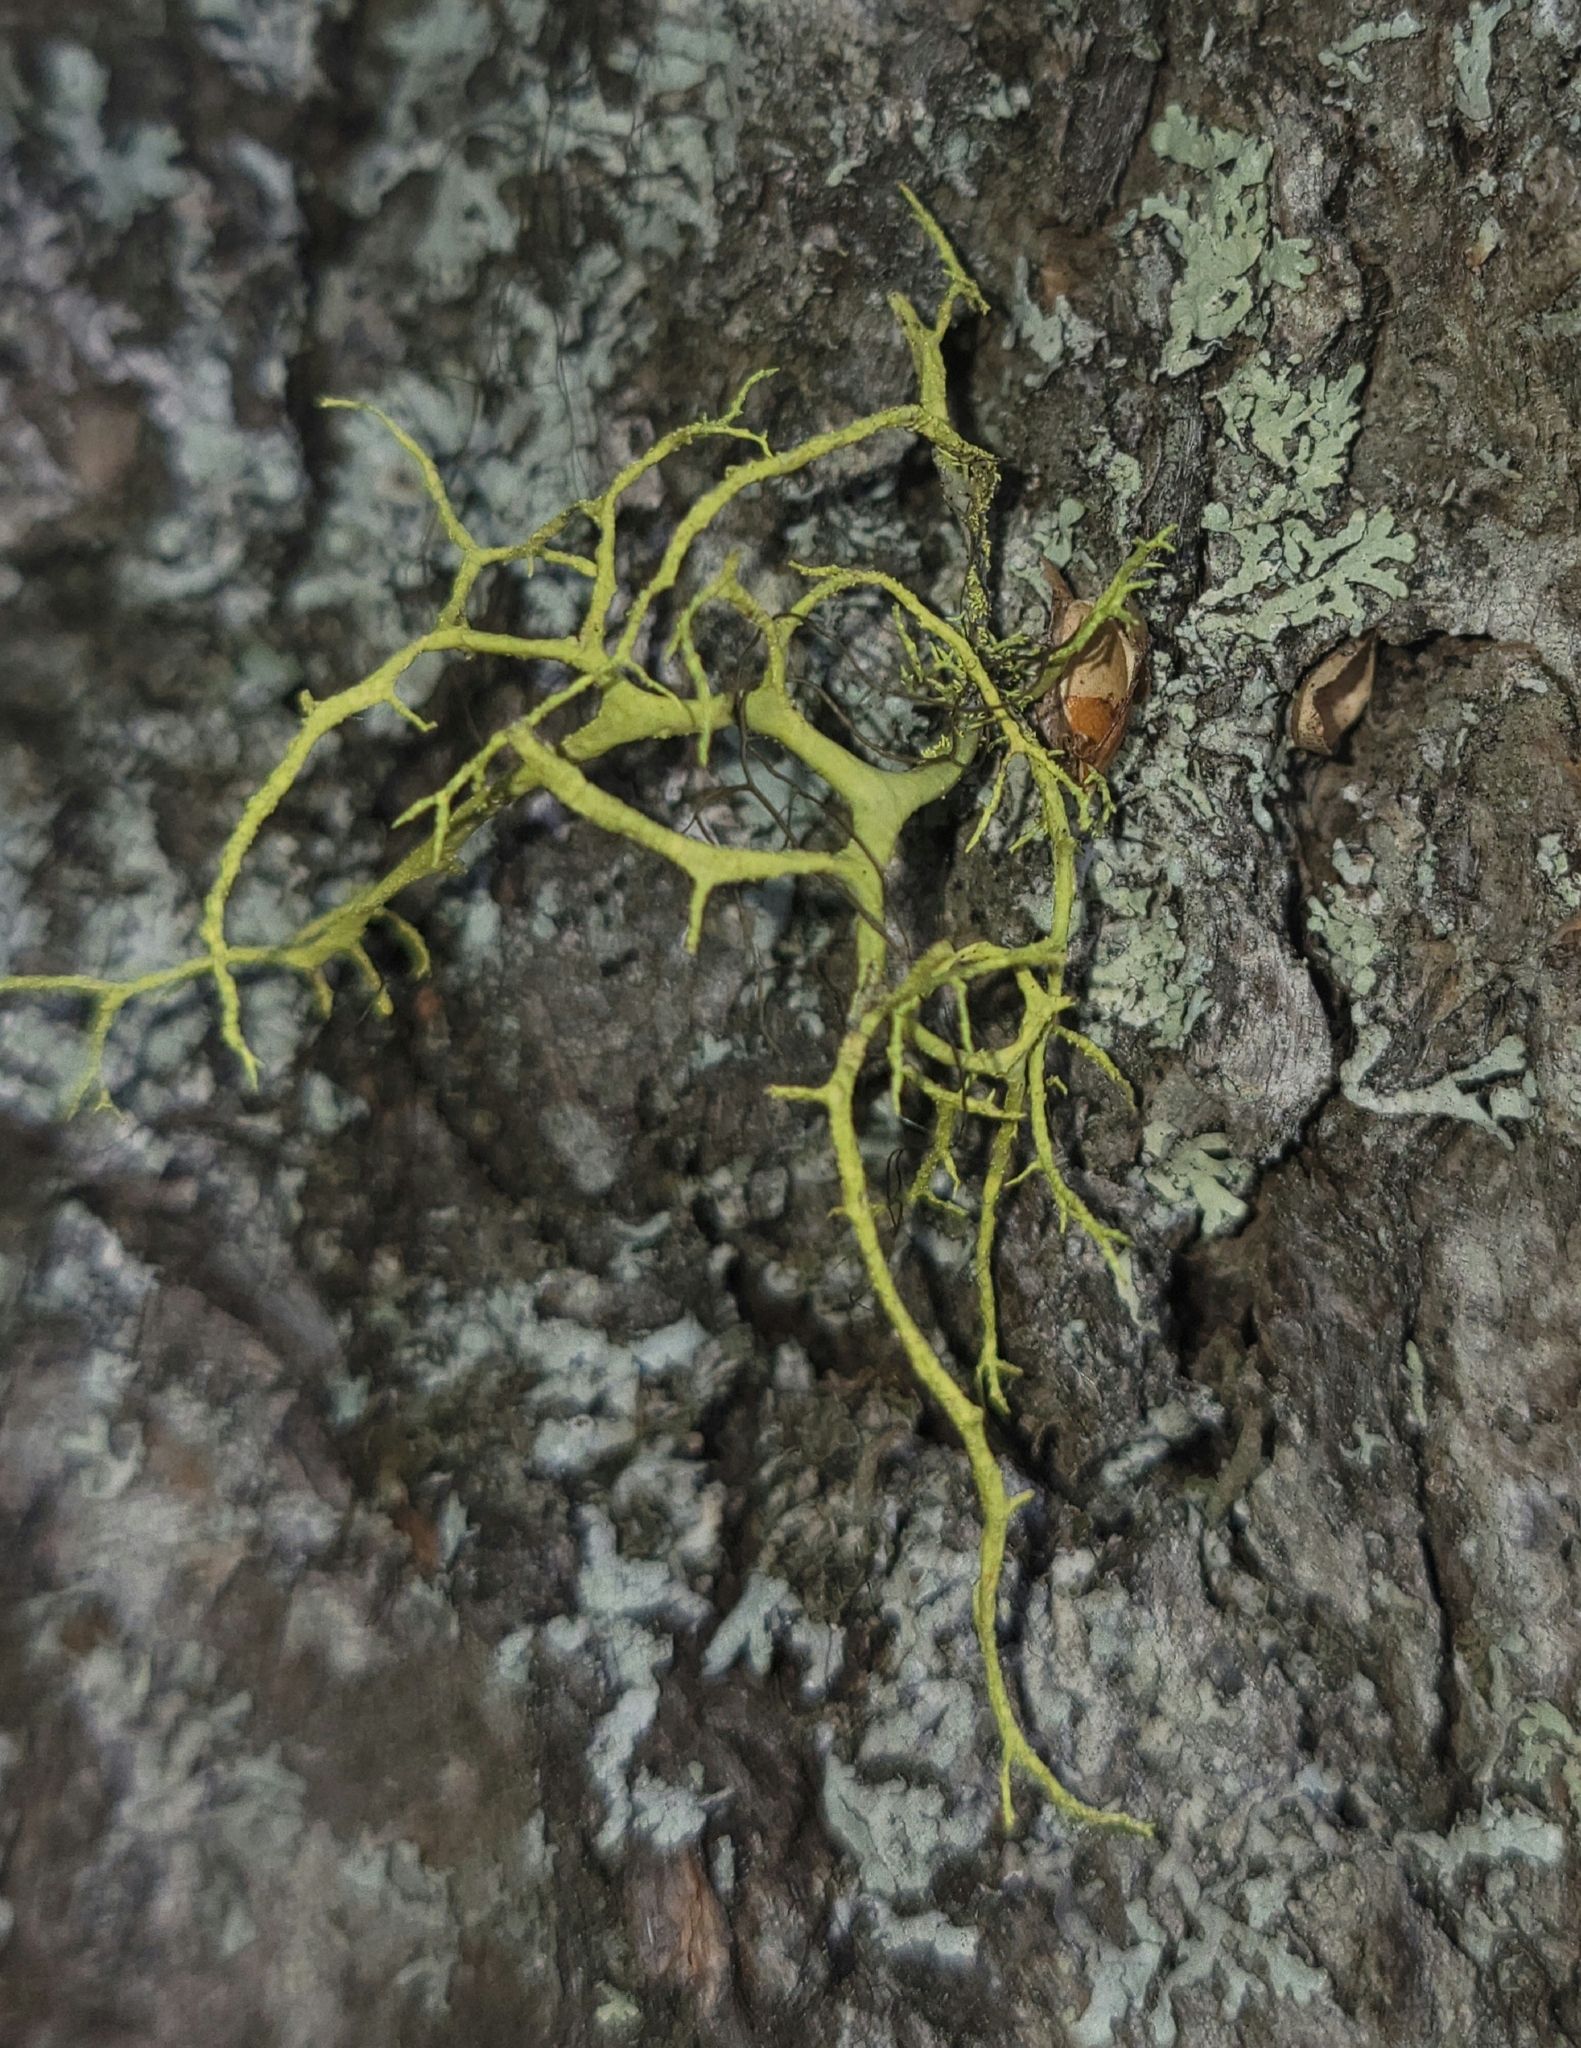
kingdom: Fungi
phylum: Ascomycota
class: Lecanoromycetes
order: Lecanorales
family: Parmeliaceae
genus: Letharia
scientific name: Letharia vulpina
